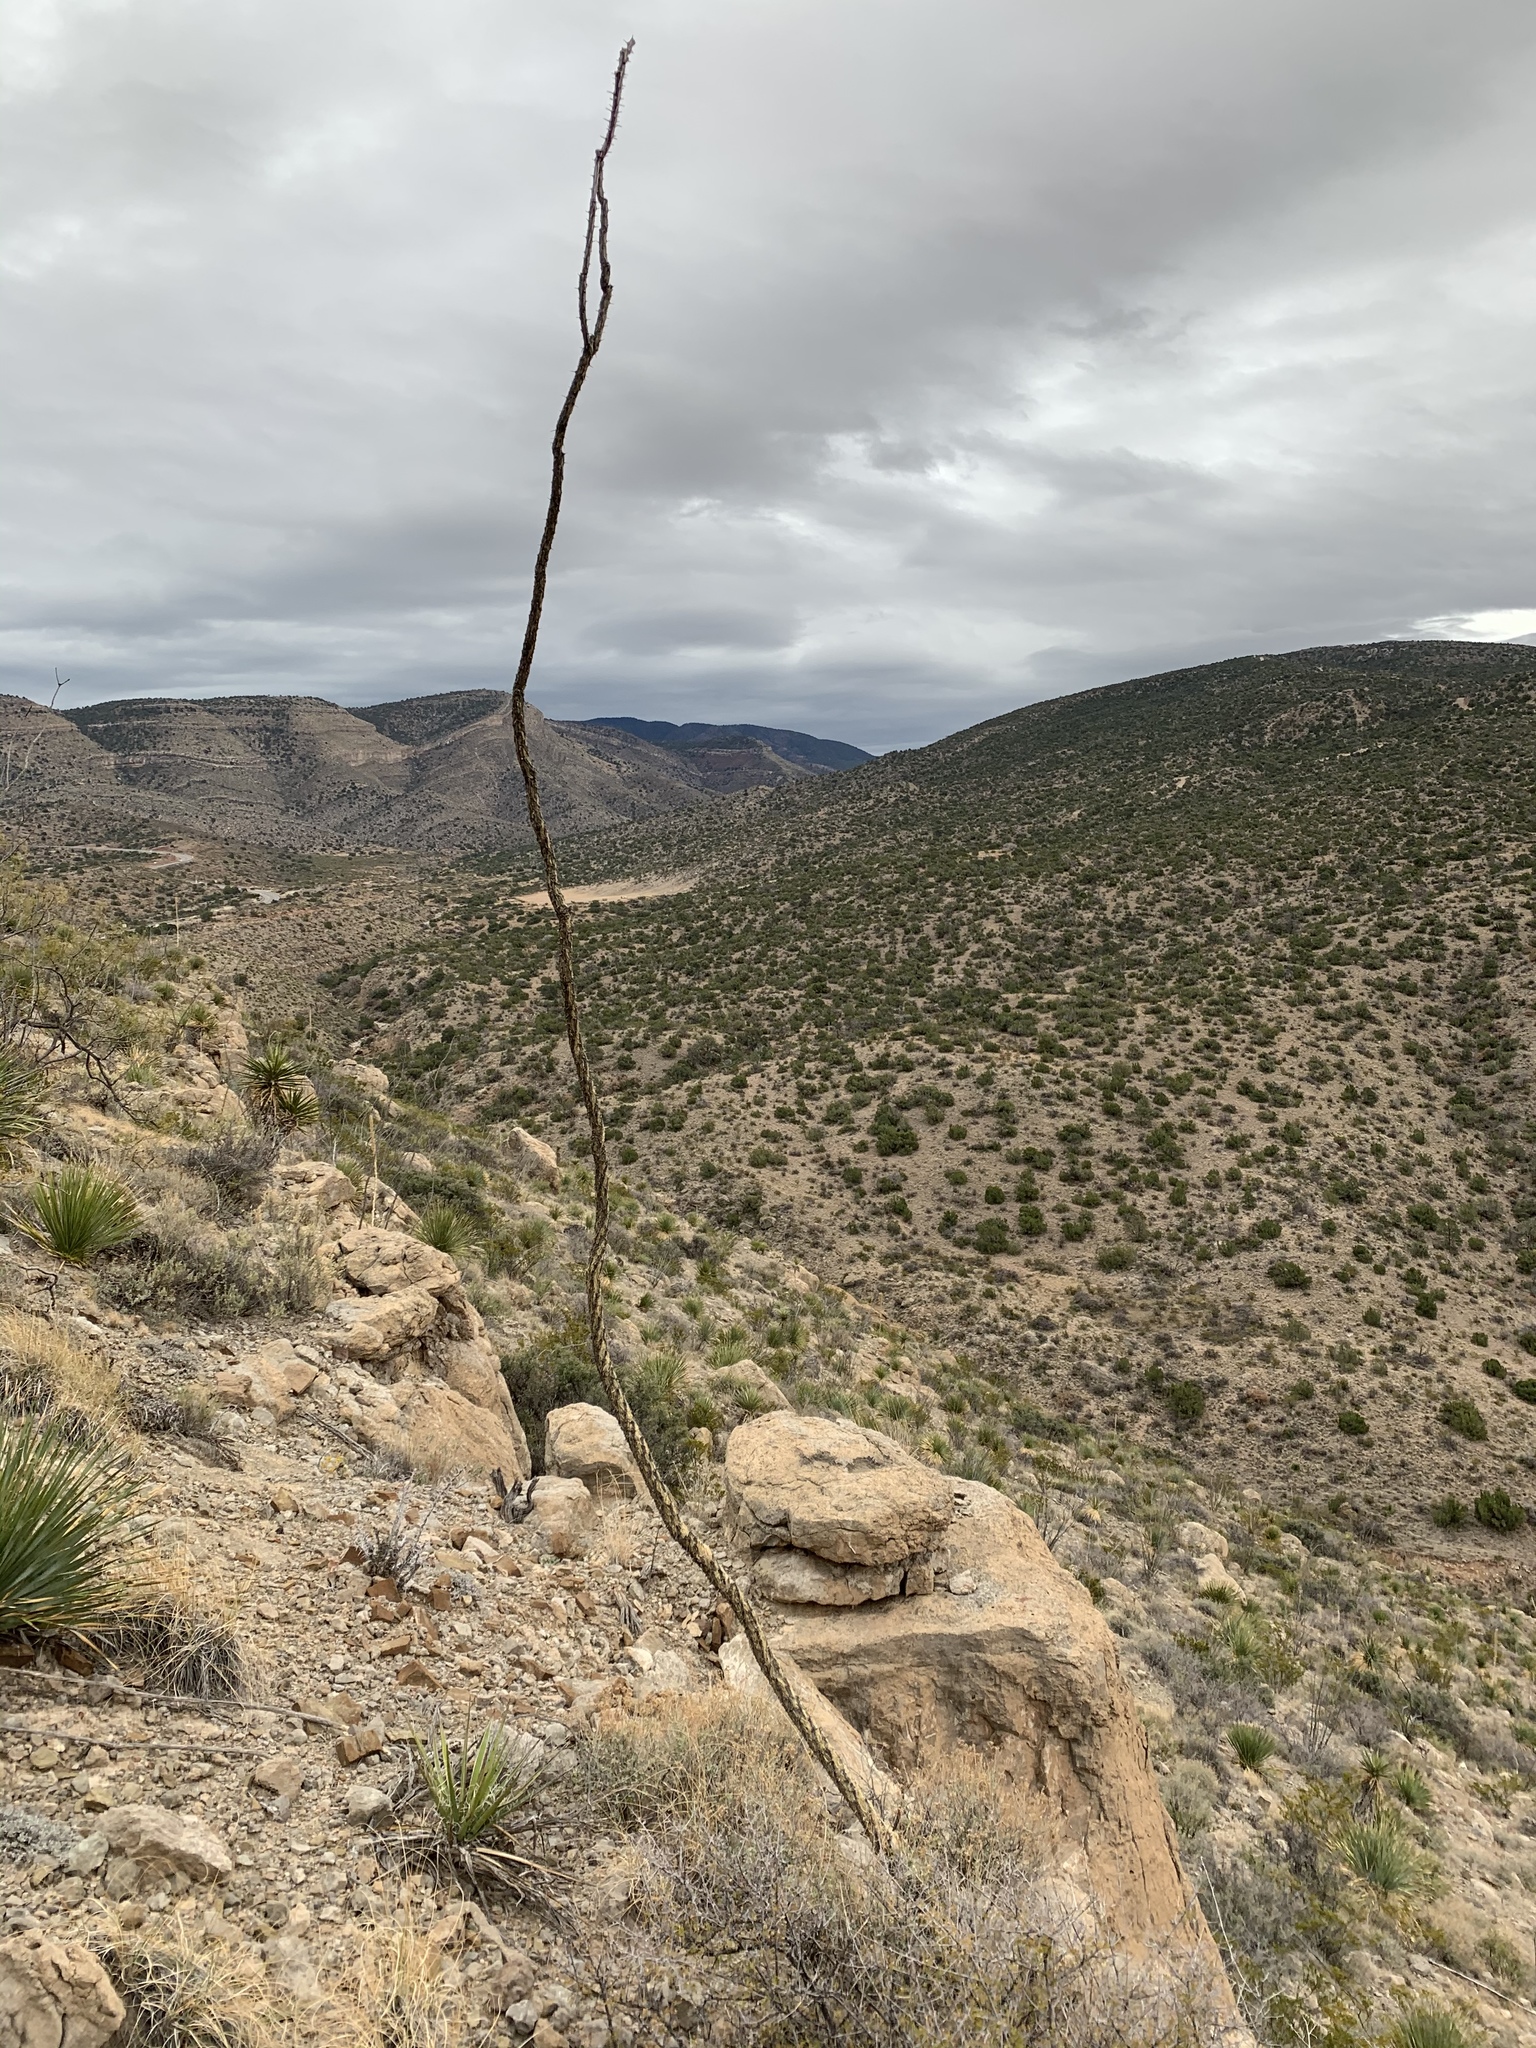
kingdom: Plantae
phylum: Tracheophyta
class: Magnoliopsida
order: Ericales
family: Fouquieriaceae
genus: Fouquieria
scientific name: Fouquieria splendens
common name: Vine-cactus
